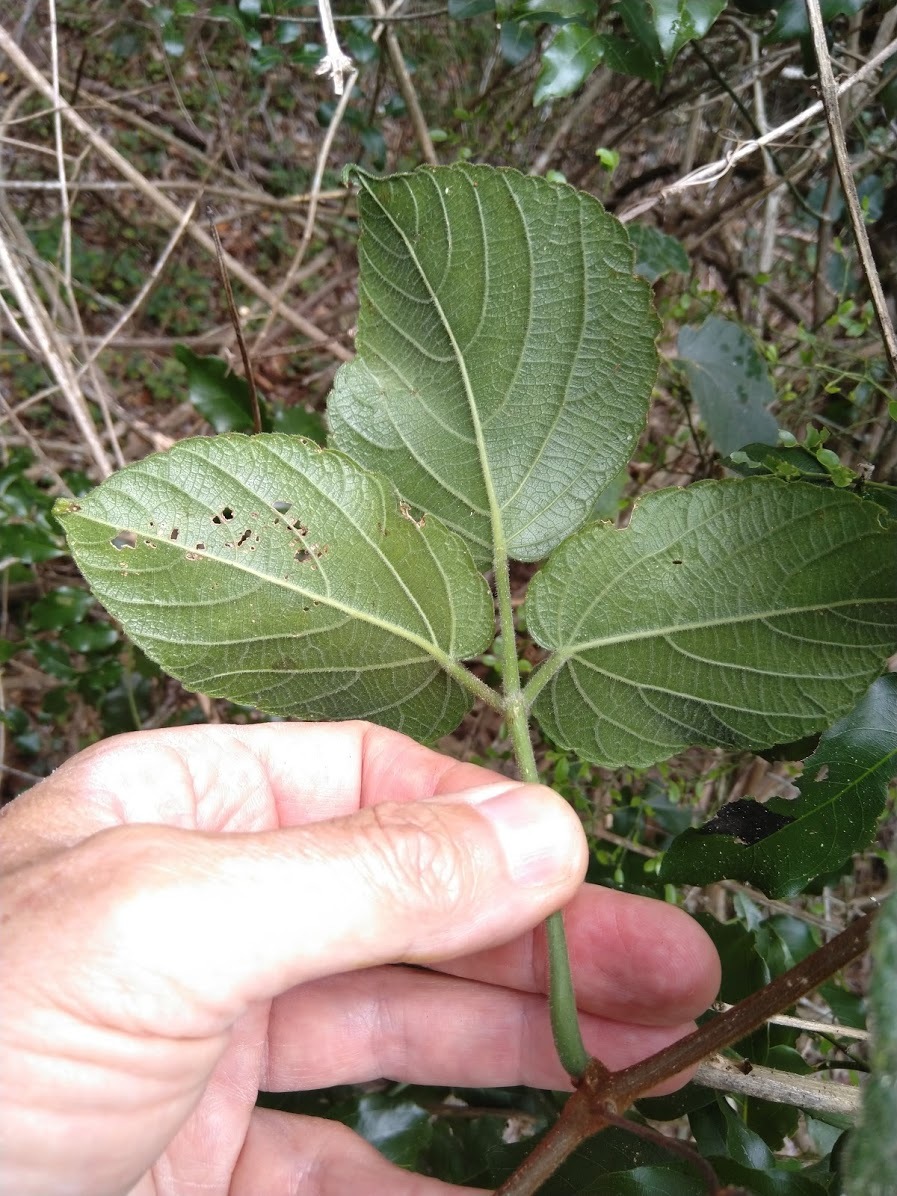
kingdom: Plantae
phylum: Tracheophyta
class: Magnoliopsida
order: Vitales
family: Vitaceae
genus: Cayratia
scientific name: Cayratia acris
